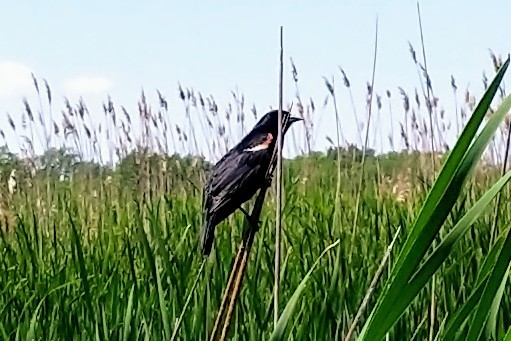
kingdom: Animalia
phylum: Chordata
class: Aves
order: Passeriformes
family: Icteridae
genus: Agelaius
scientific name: Agelaius phoeniceus
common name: Red-winged blackbird
